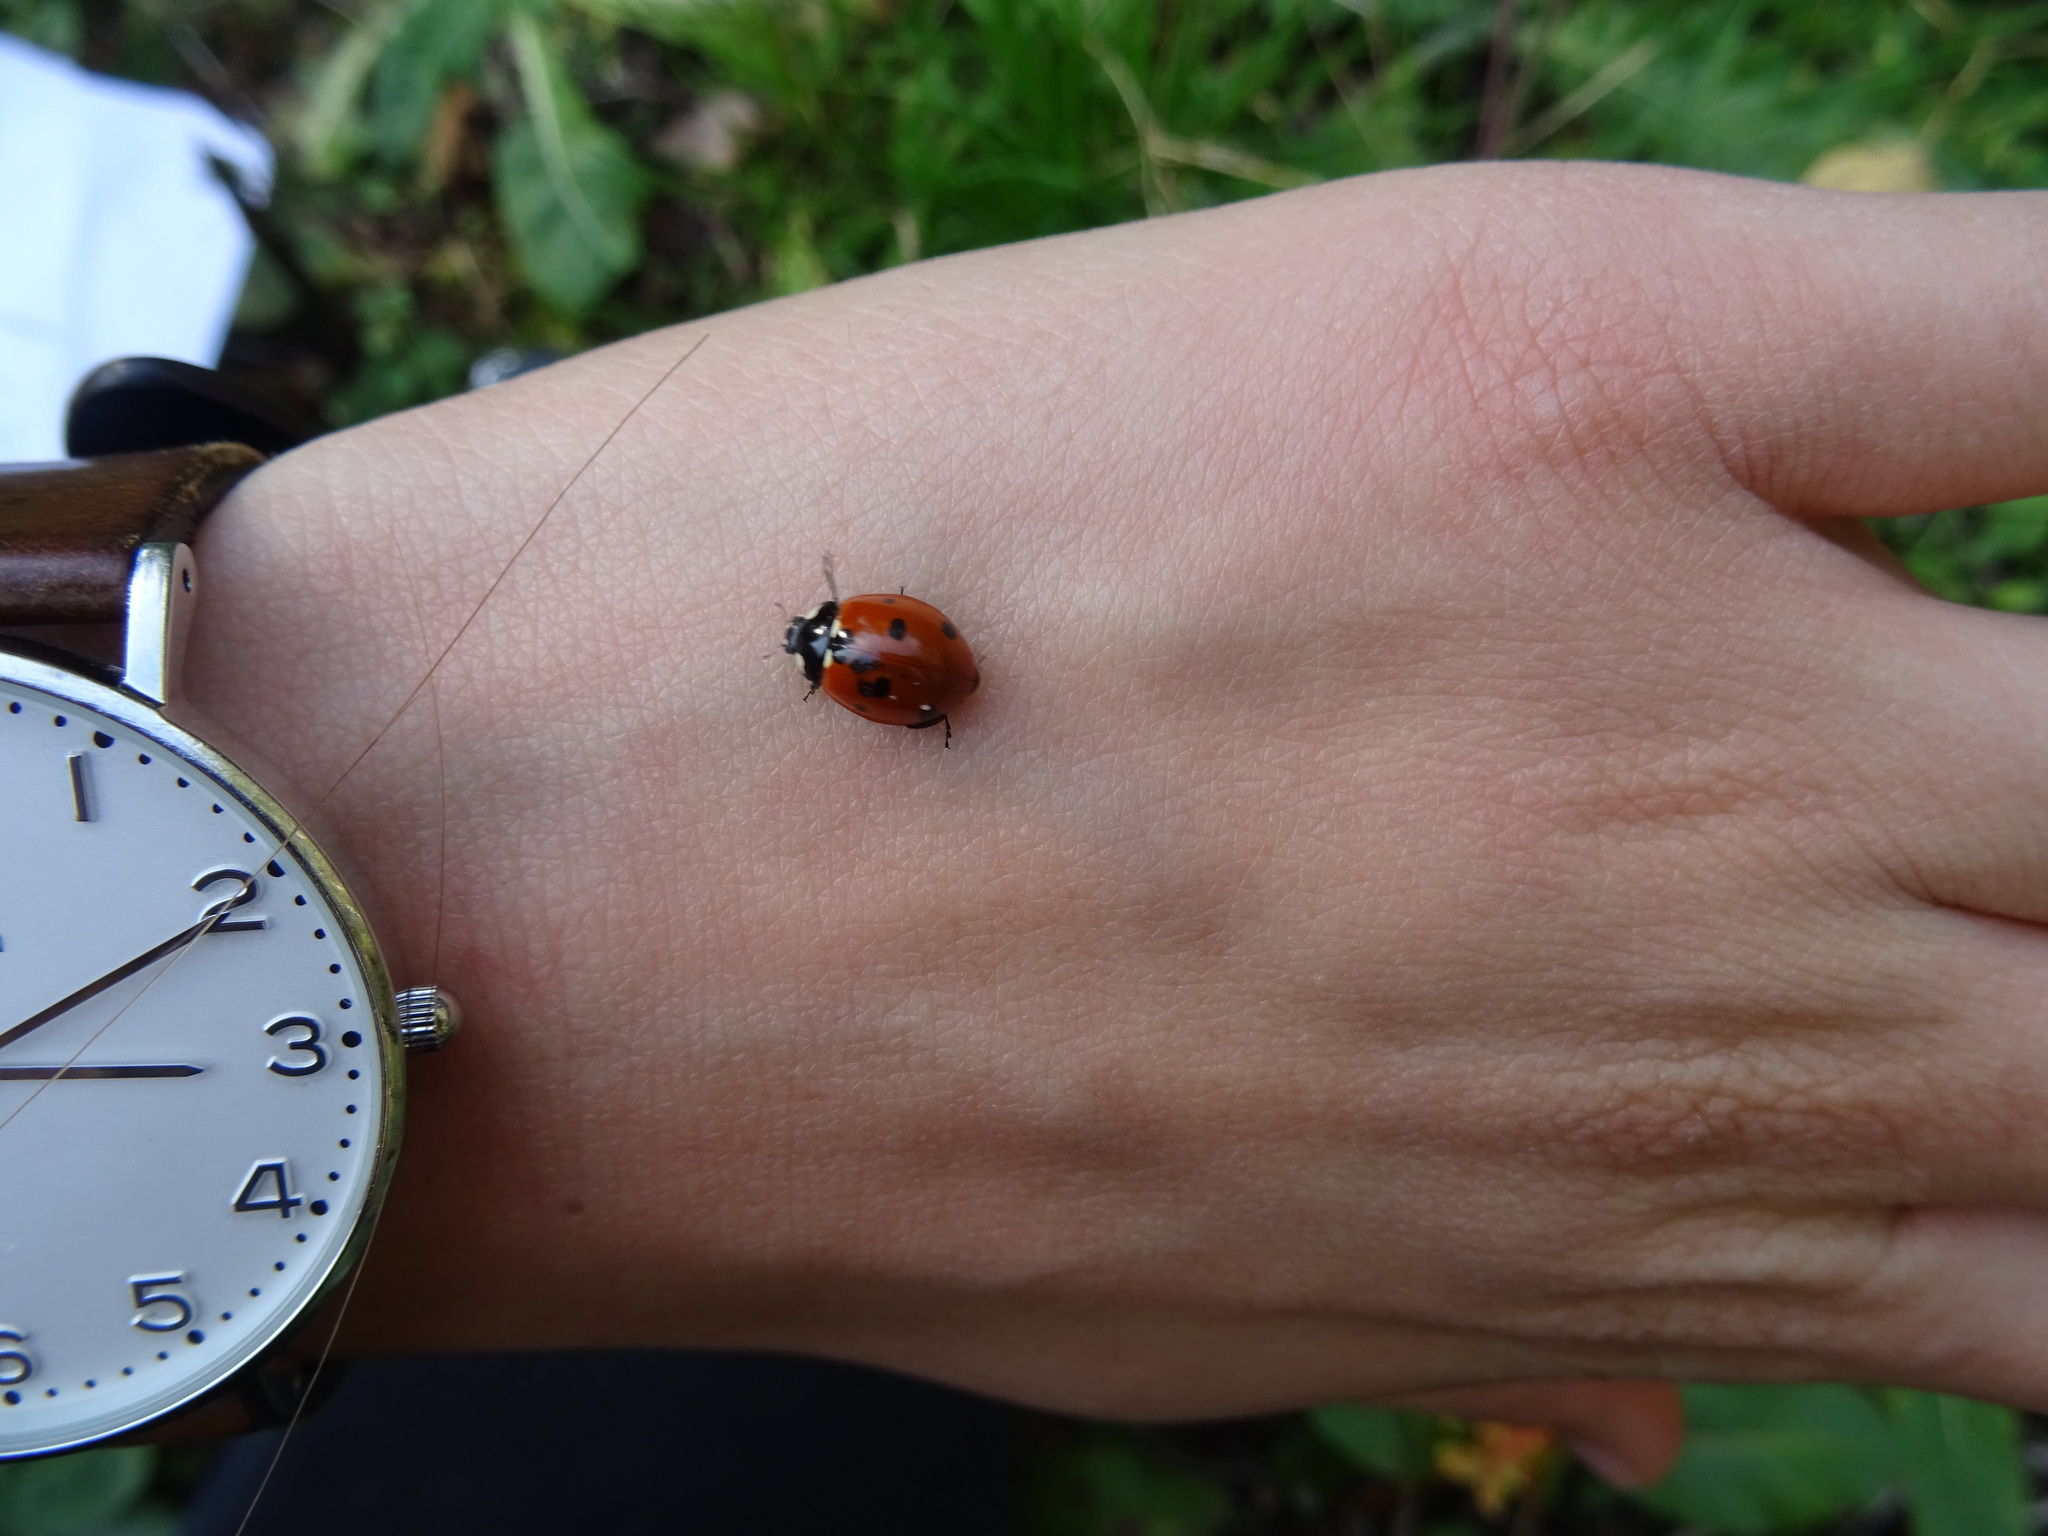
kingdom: Animalia
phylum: Arthropoda
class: Insecta
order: Coleoptera
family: Coccinellidae
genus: Coccinella
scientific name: Coccinella septempunctata
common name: Sevenspotted lady beetle
